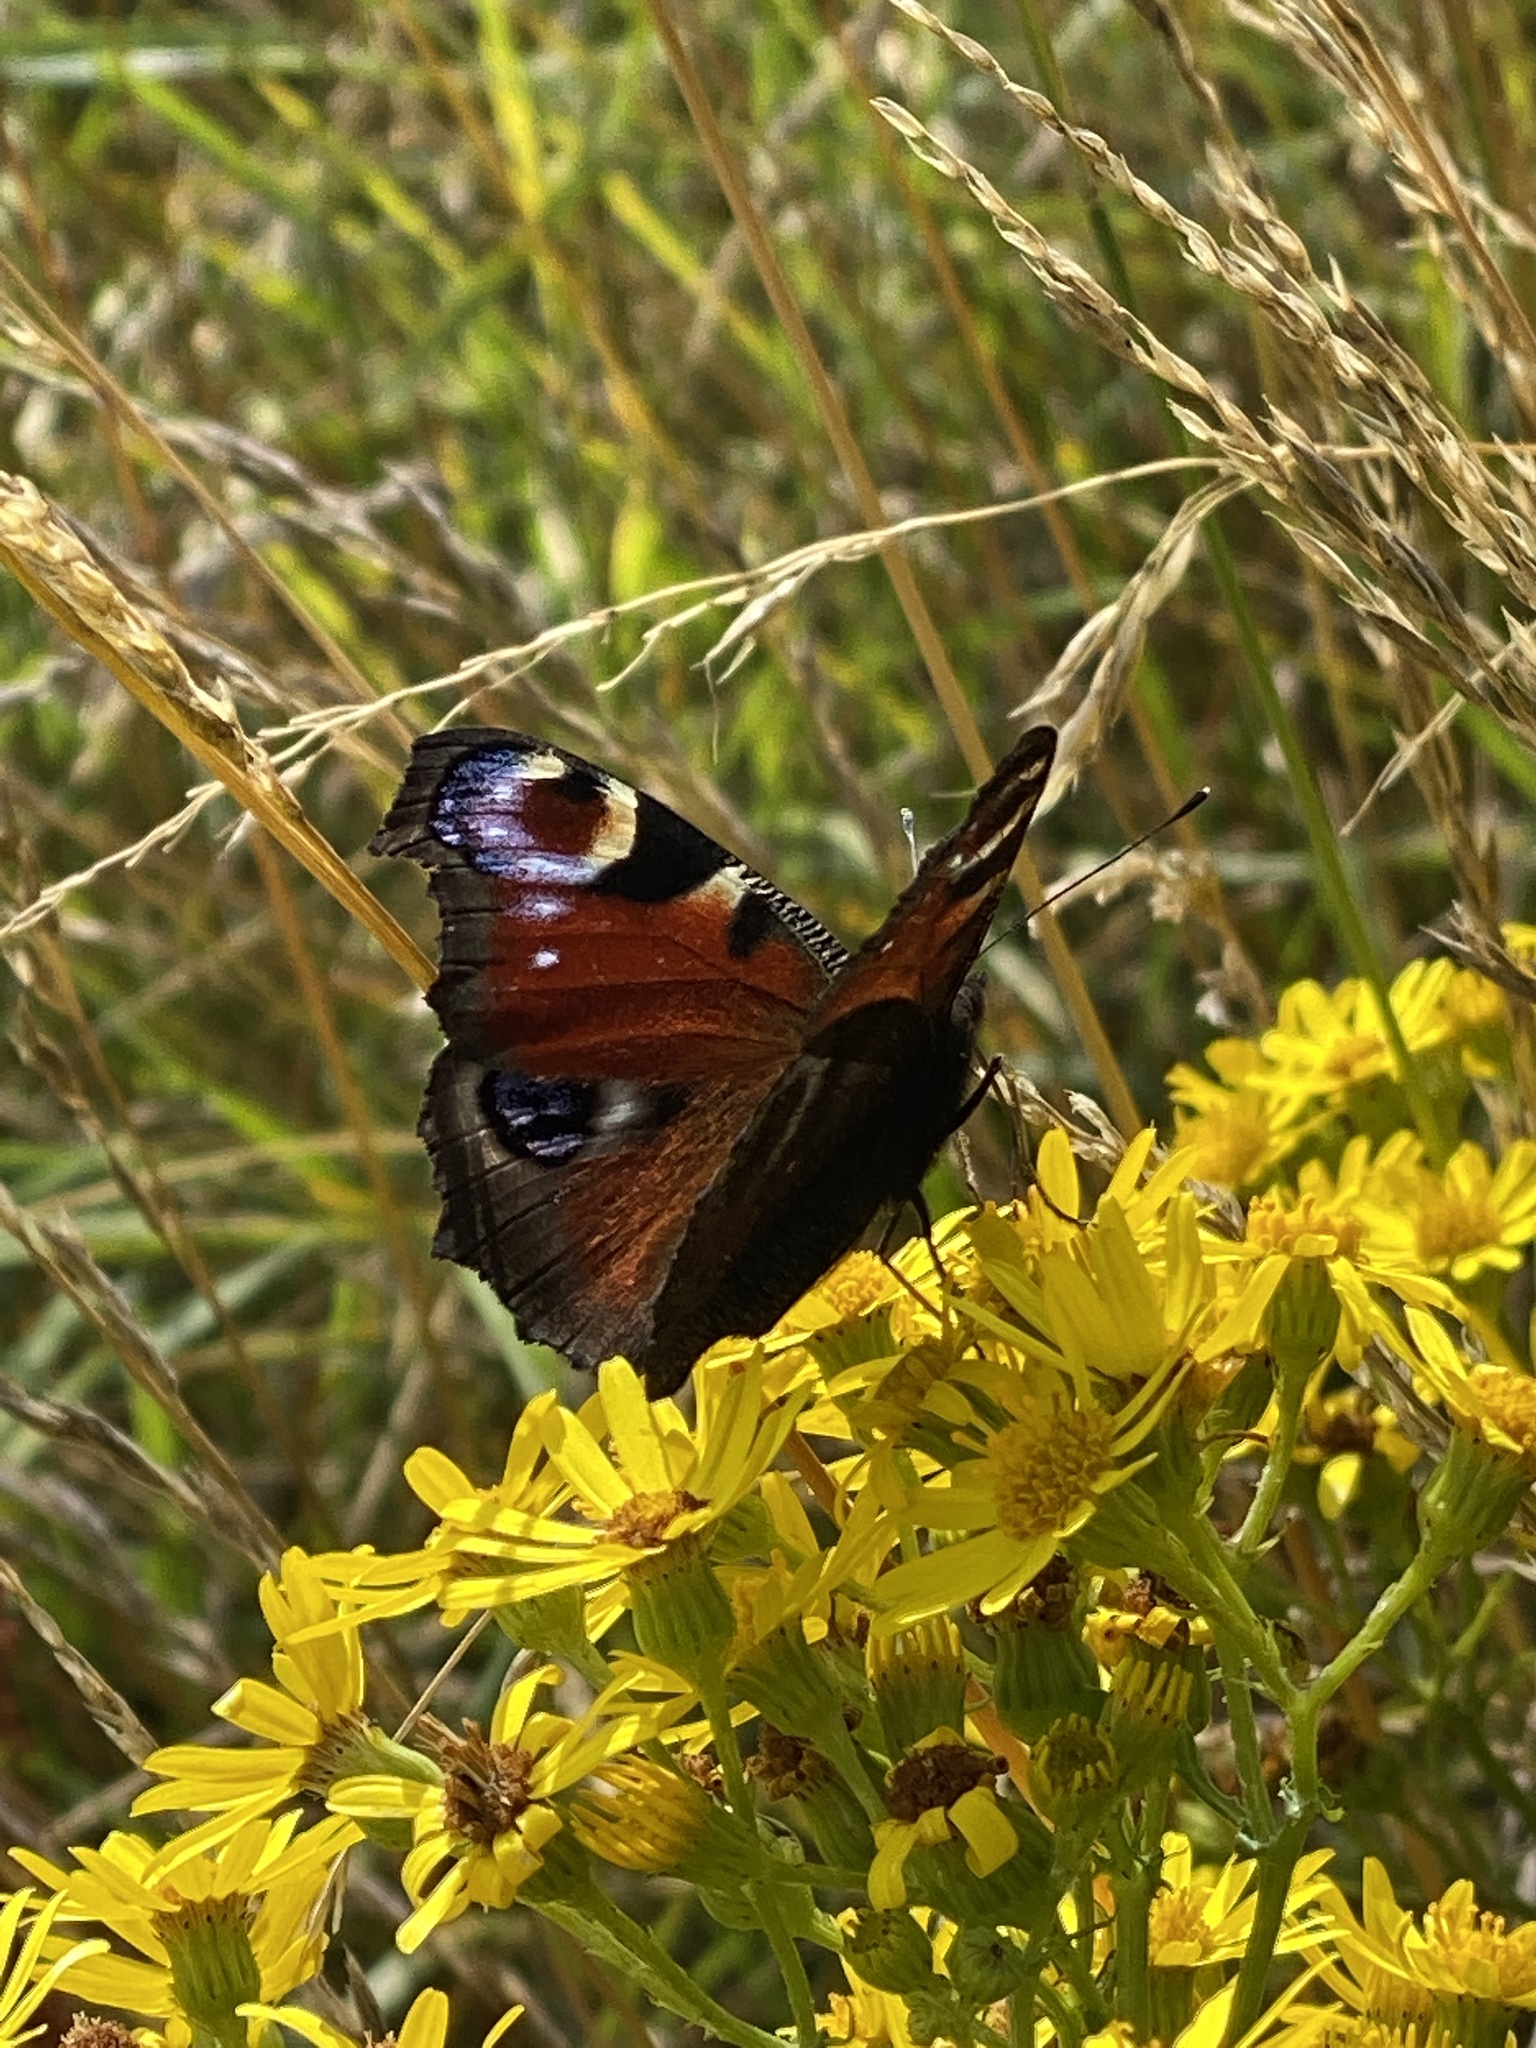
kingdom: Animalia
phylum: Arthropoda
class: Insecta
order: Lepidoptera
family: Nymphalidae
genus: Aglais
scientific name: Aglais io
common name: Peacock
